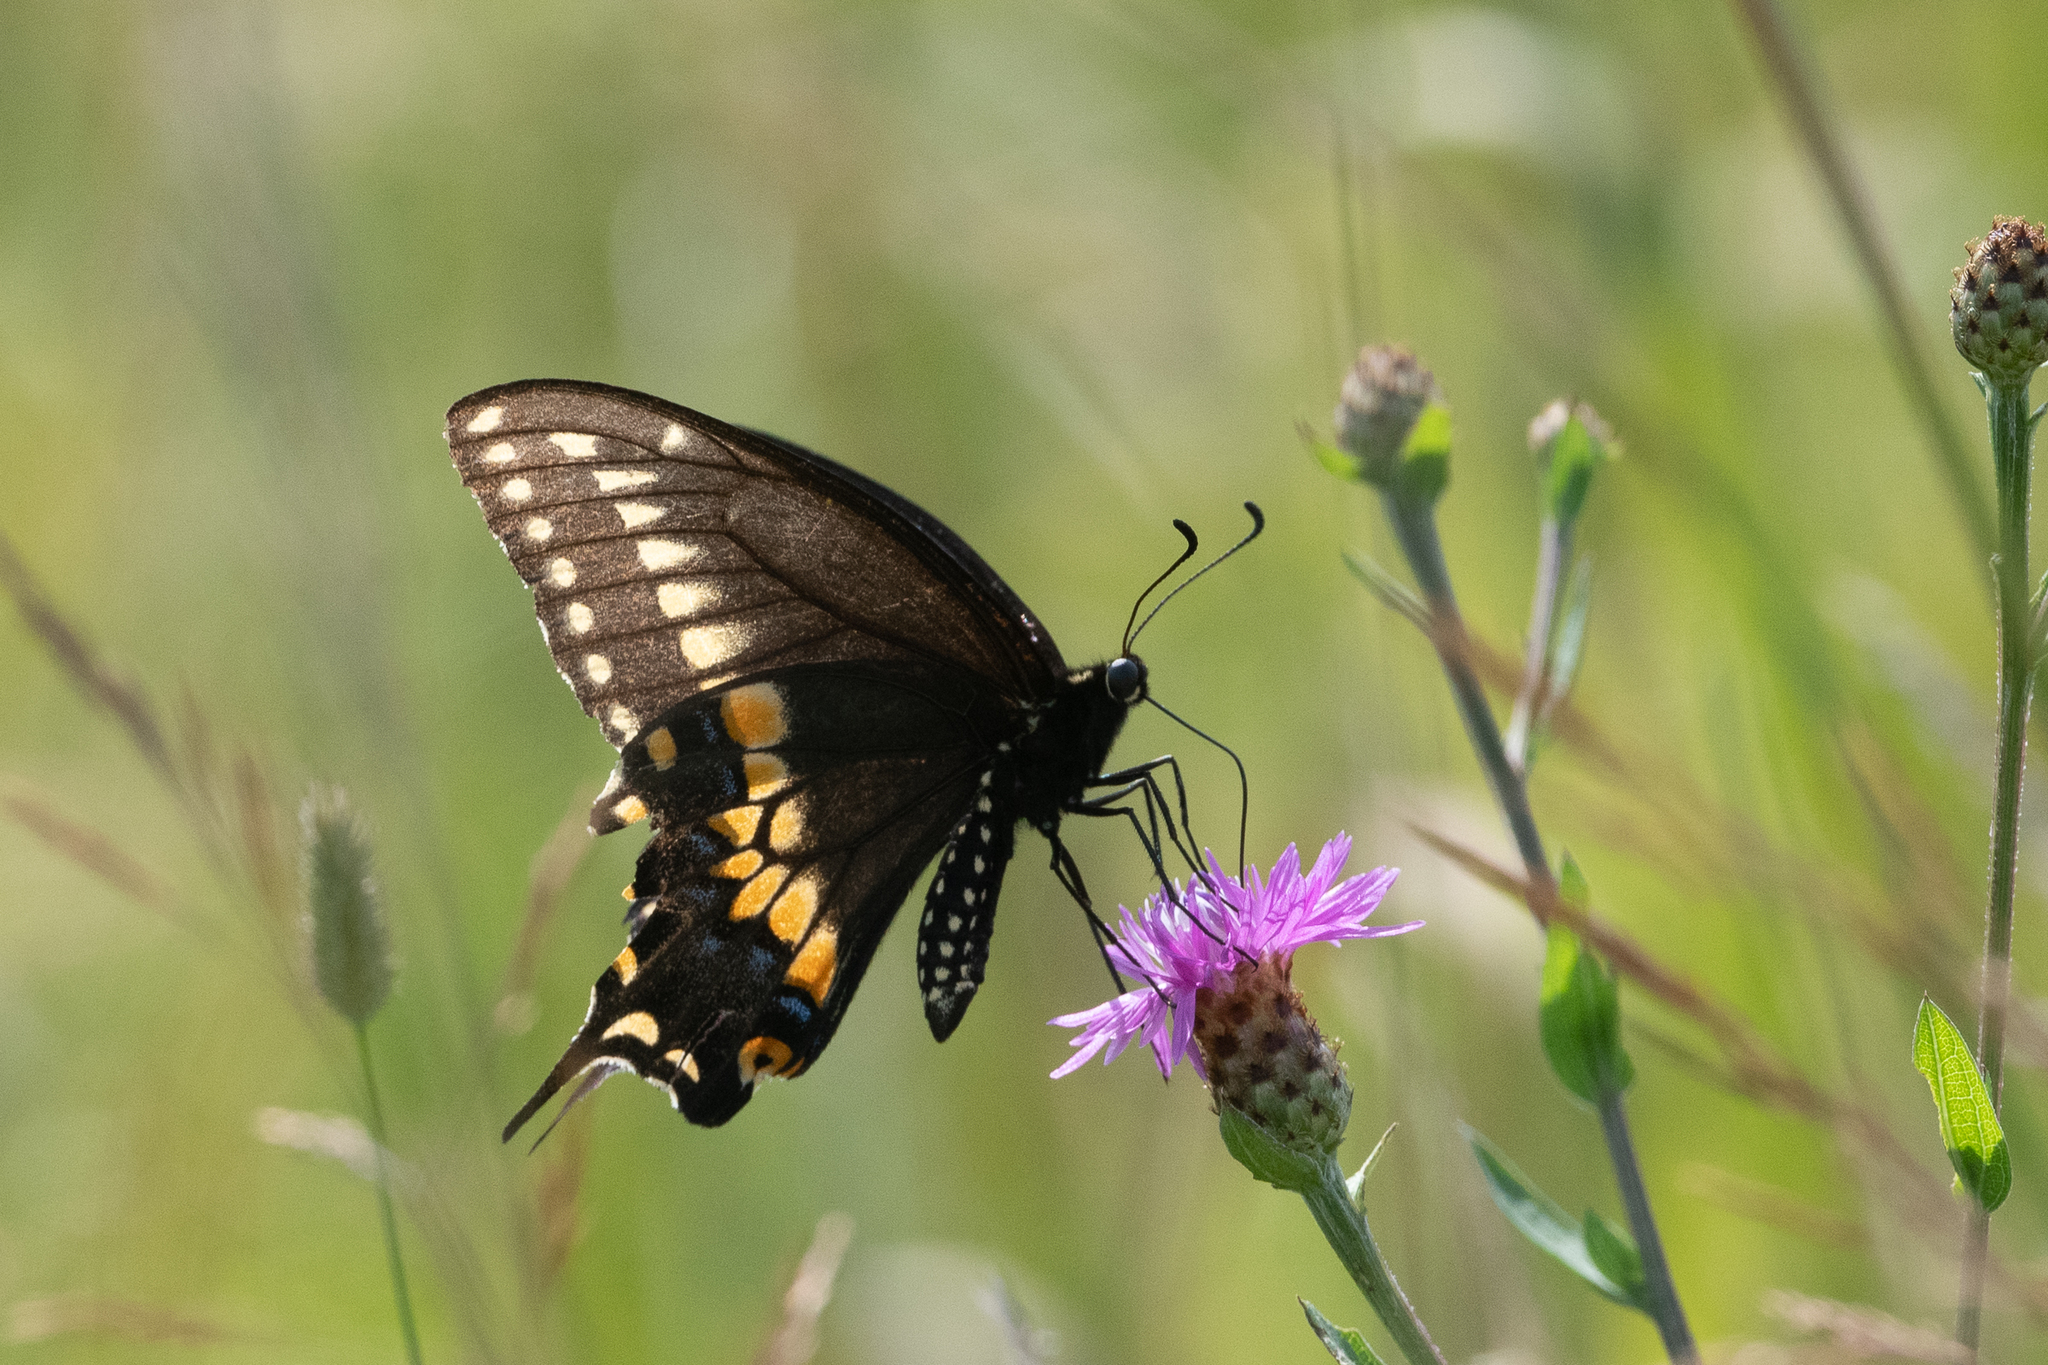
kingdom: Animalia
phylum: Arthropoda
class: Insecta
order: Lepidoptera
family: Papilionidae
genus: Papilio
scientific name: Papilio polyxenes
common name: Black swallowtail
